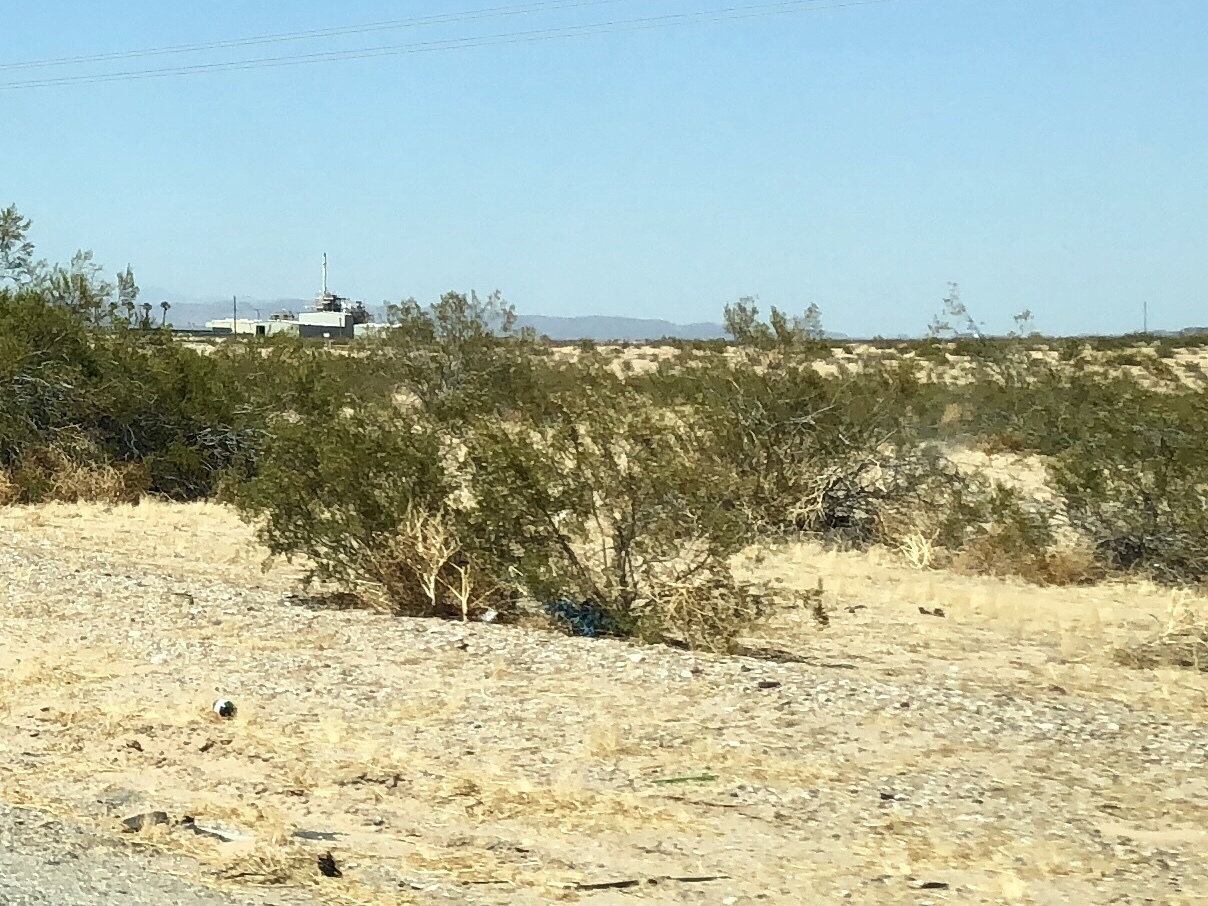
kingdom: Plantae
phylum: Tracheophyta
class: Magnoliopsida
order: Zygophyllales
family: Zygophyllaceae
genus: Larrea
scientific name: Larrea tridentata
